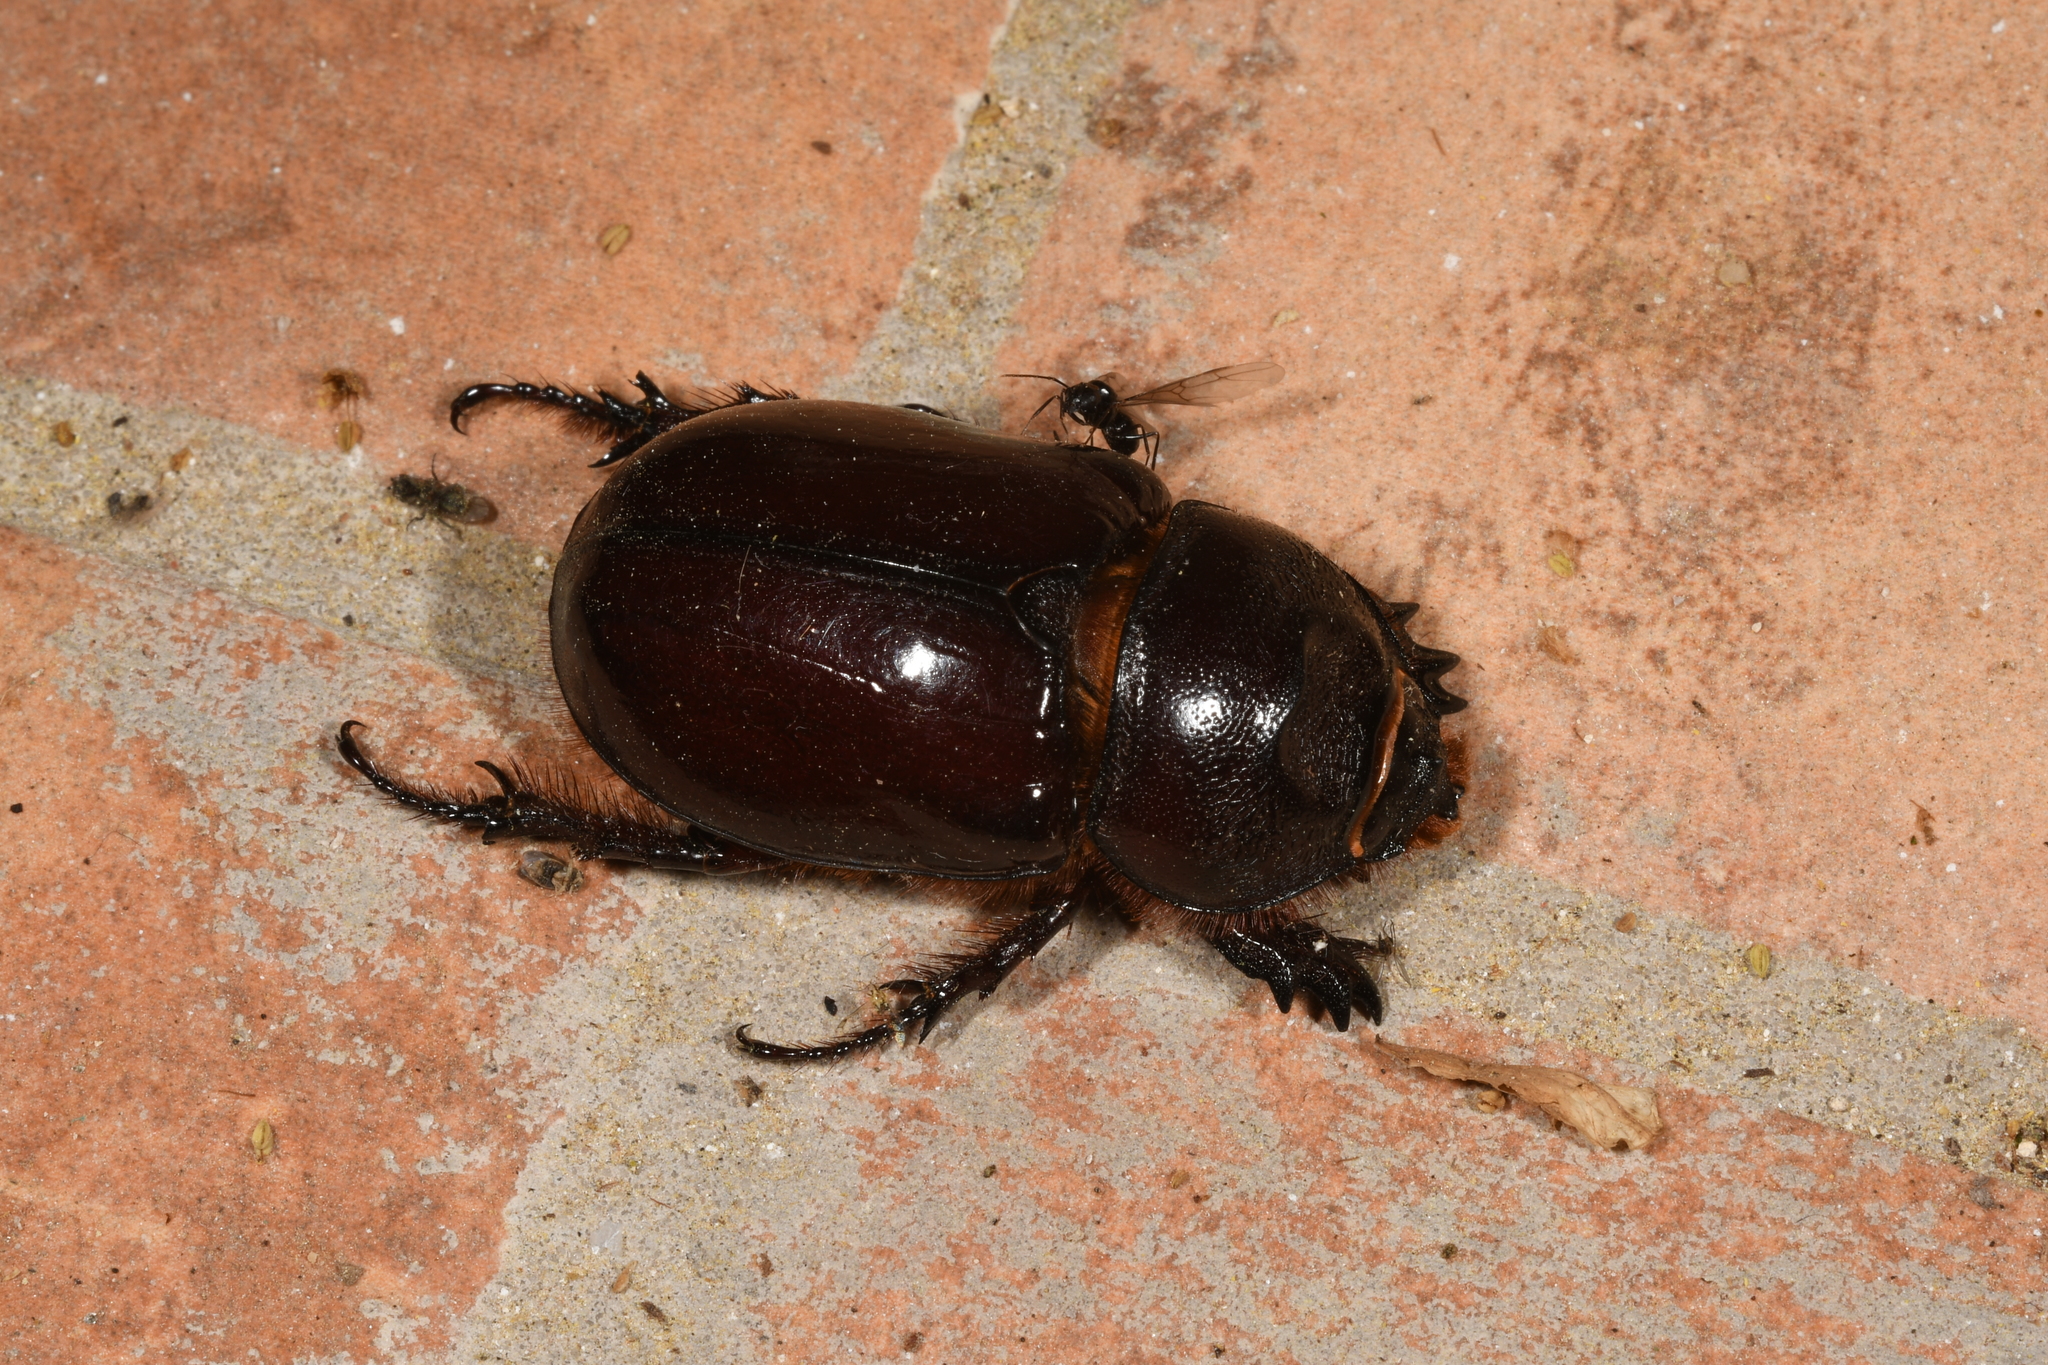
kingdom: Animalia
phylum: Arthropoda
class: Insecta
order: Coleoptera
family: Scarabaeidae
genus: Oryctes
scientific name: Oryctes nasicornis
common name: European rhinoceros beetle
